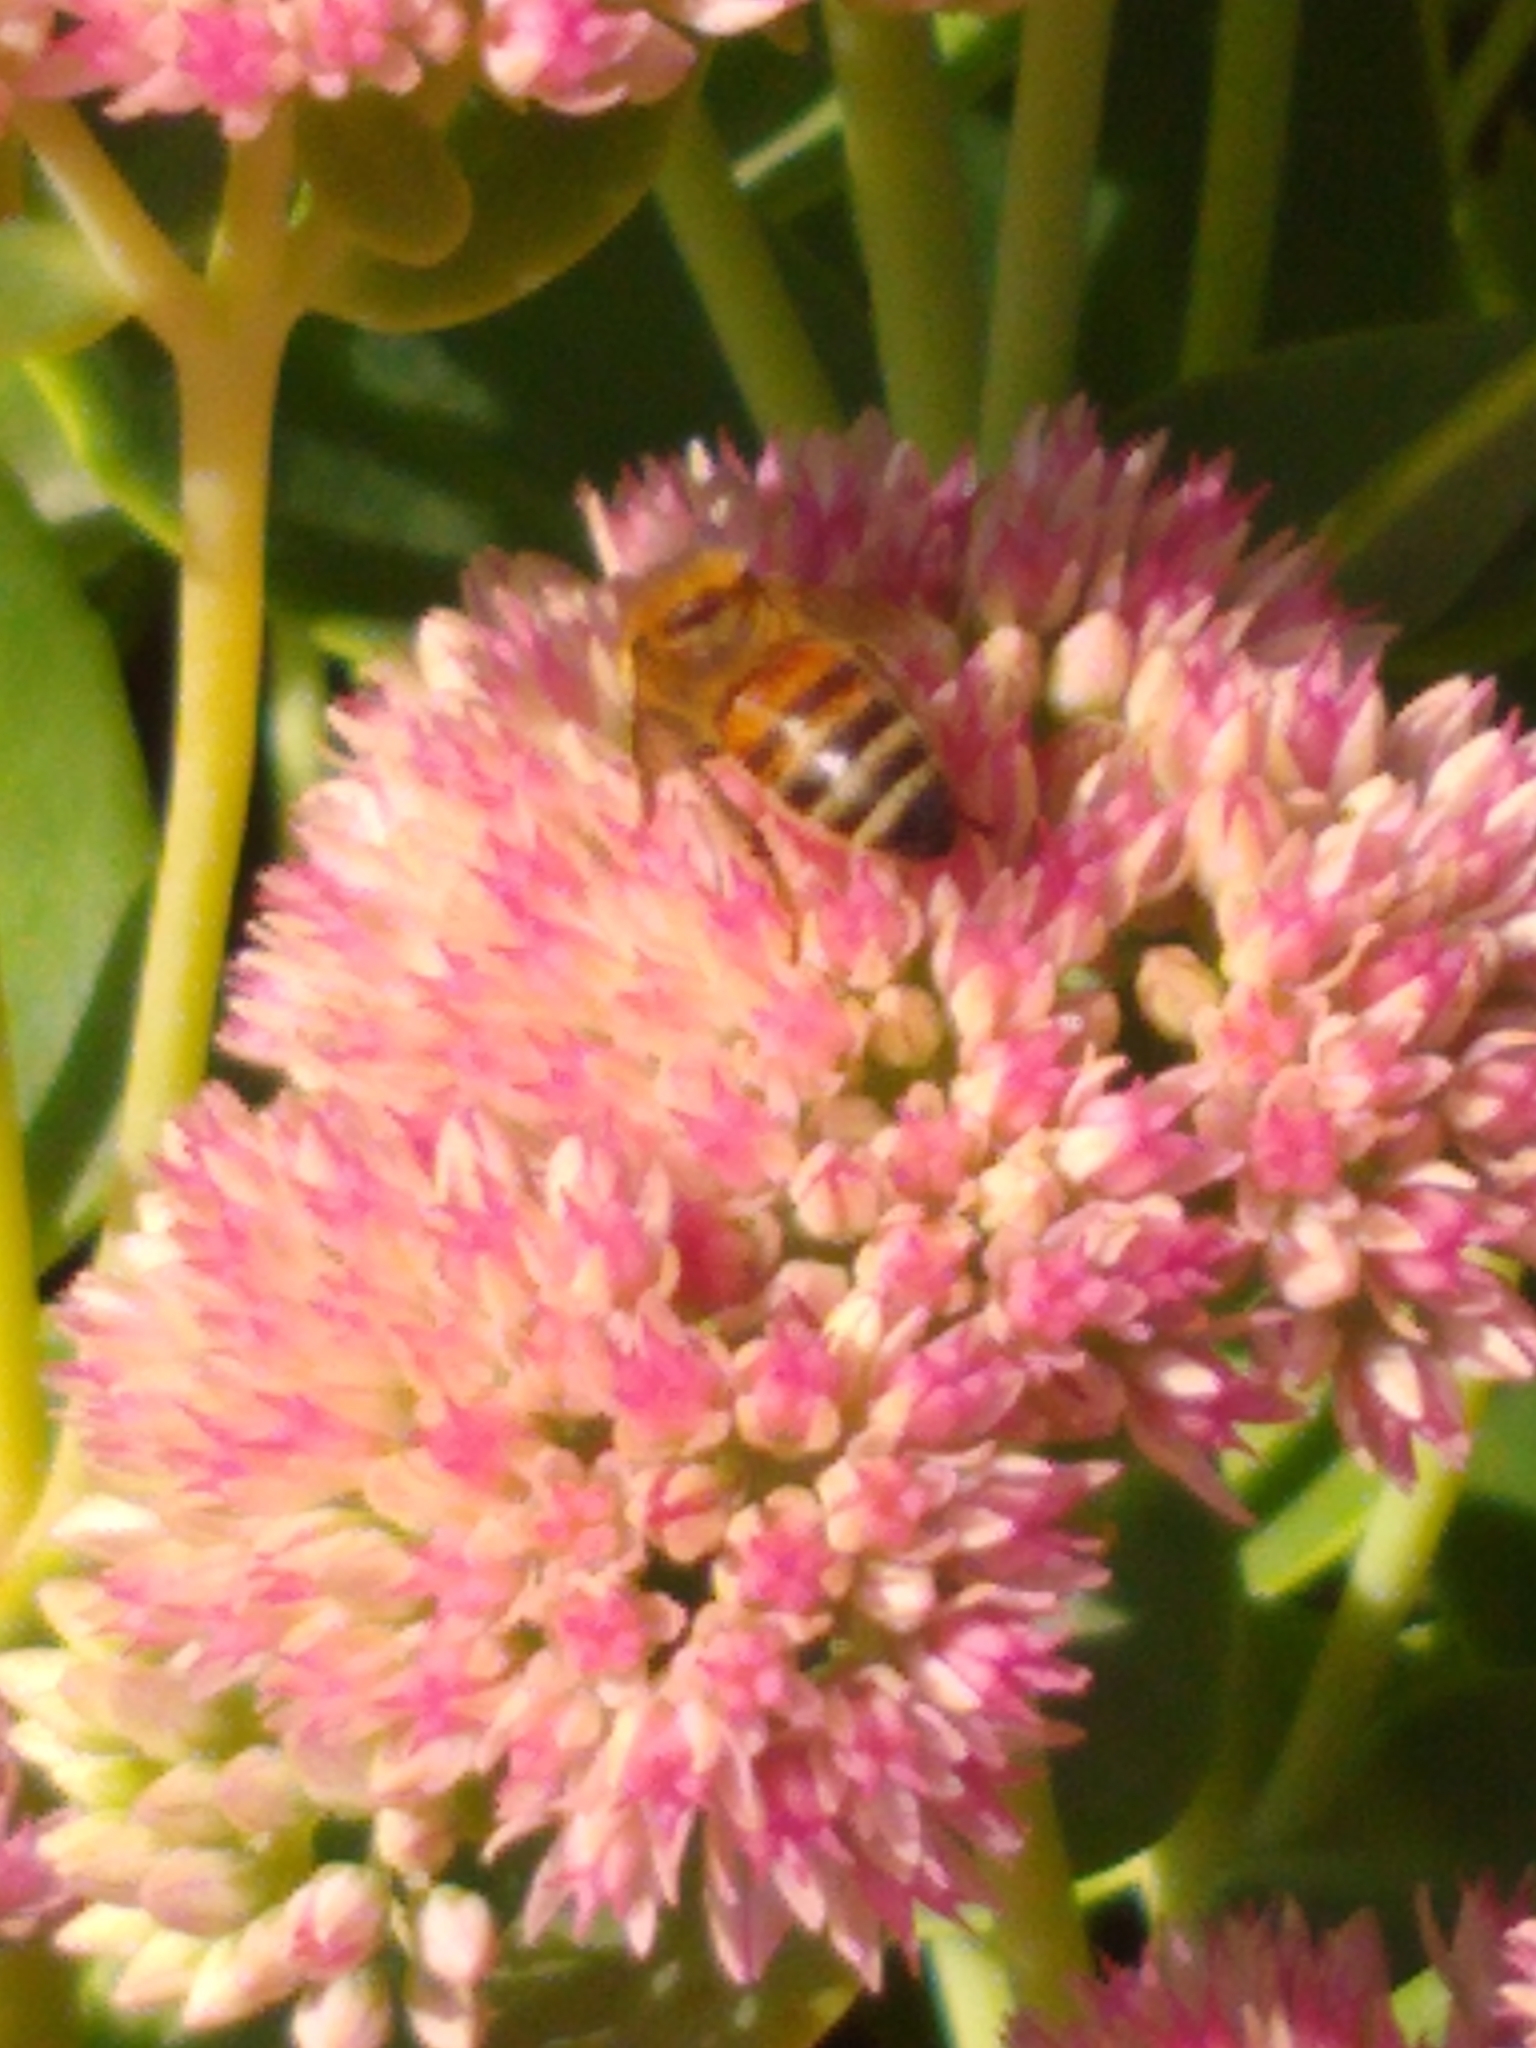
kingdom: Animalia
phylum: Arthropoda
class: Insecta
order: Hymenoptera
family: Apidae
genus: Apis
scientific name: Apis mellifera
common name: Honey bee
